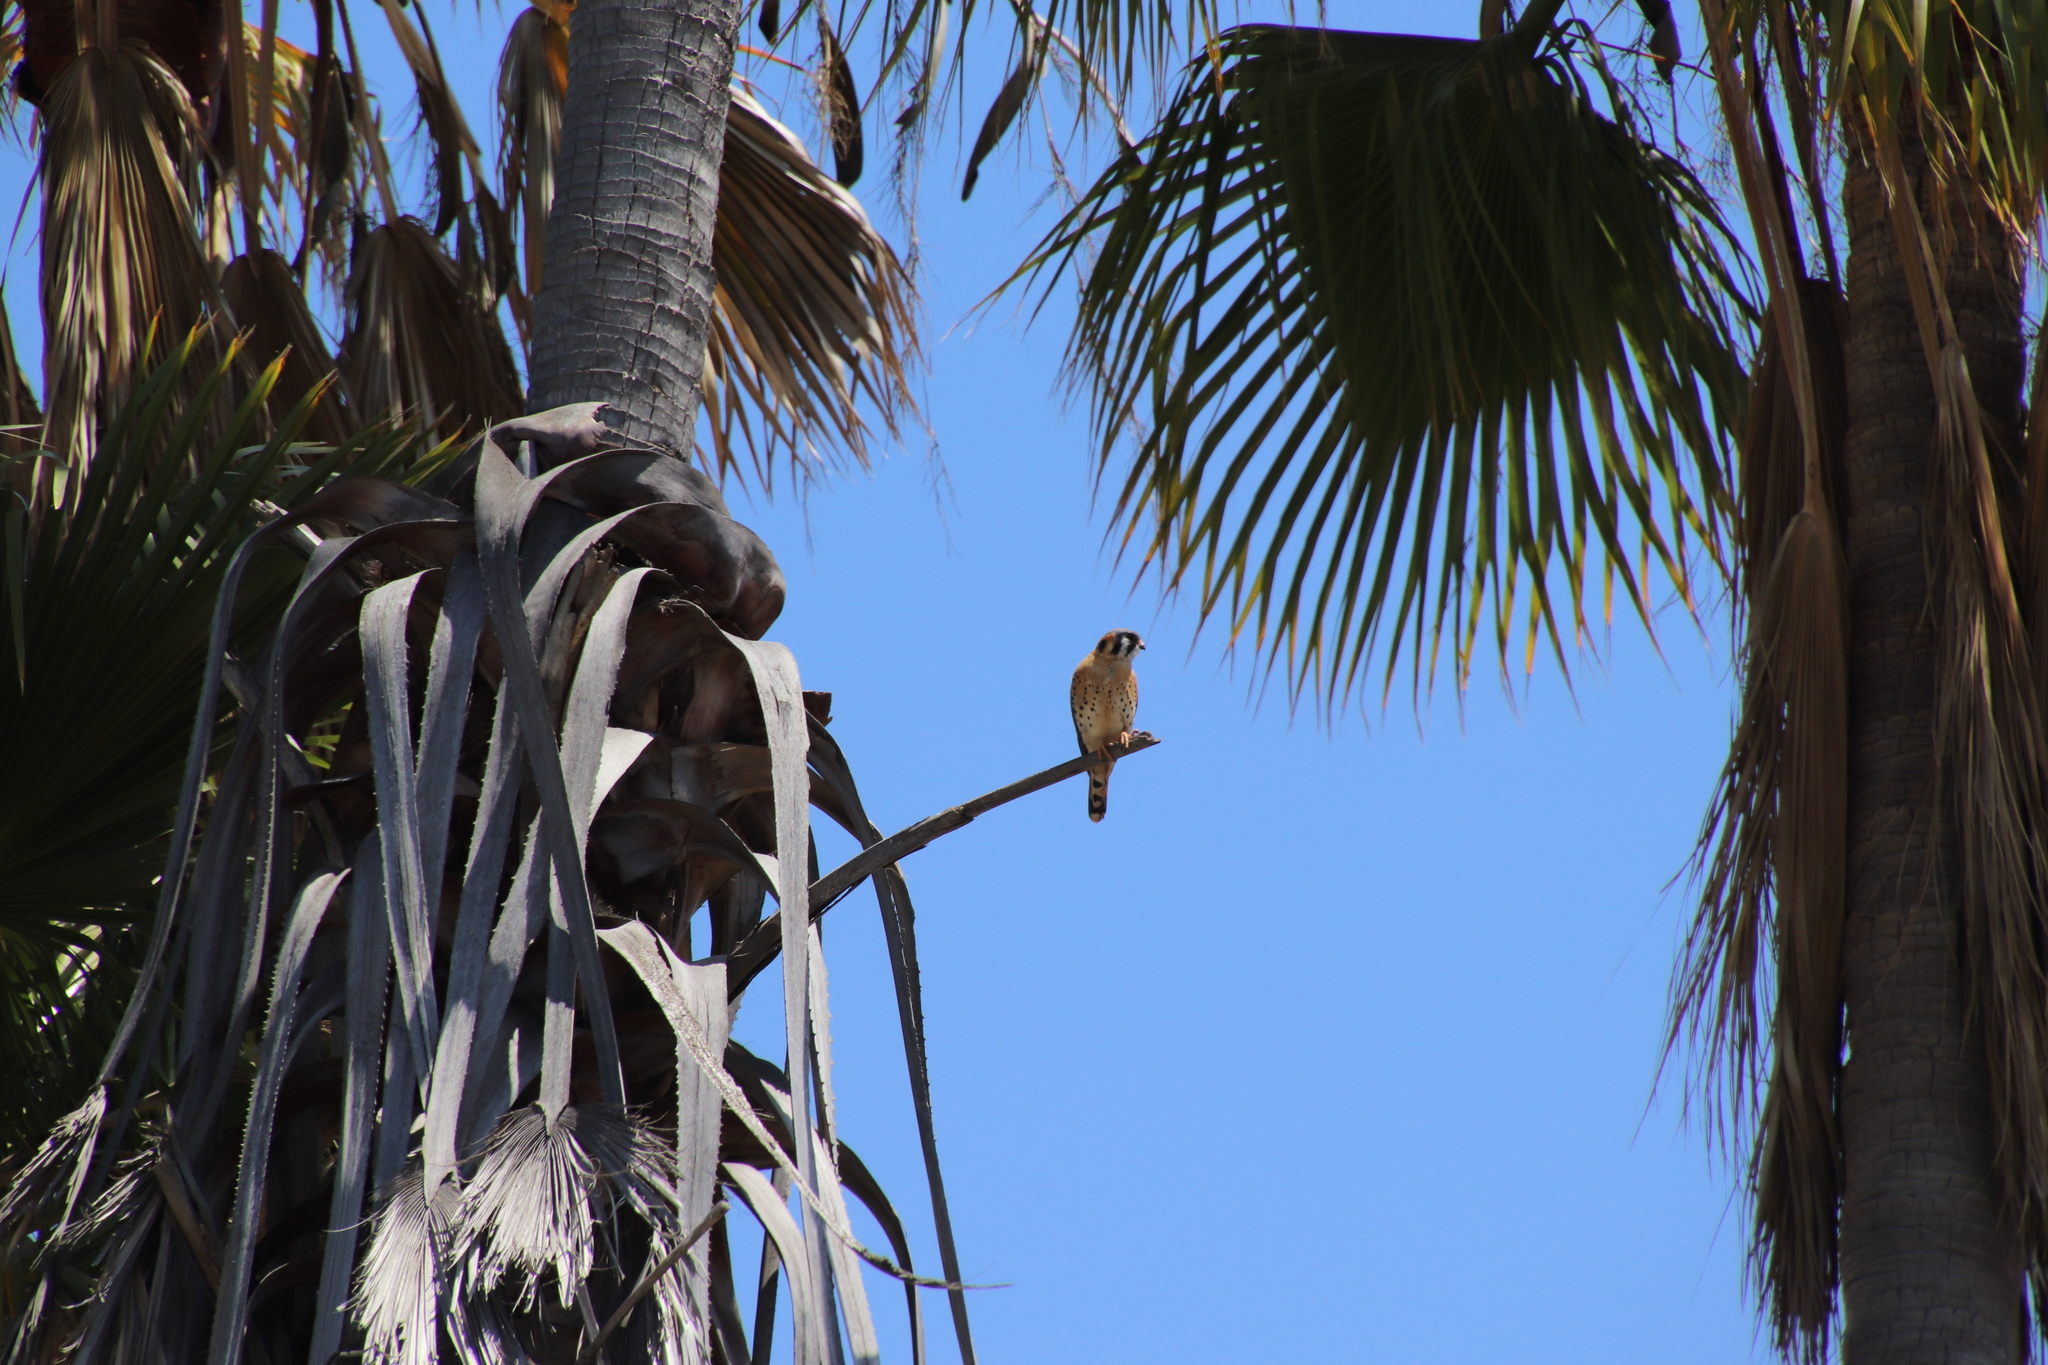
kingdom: Animalia
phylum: Chordata
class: Aves
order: Falconiformes
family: Falconidae
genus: Falco
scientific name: Falco sparverius
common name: American kestrel
